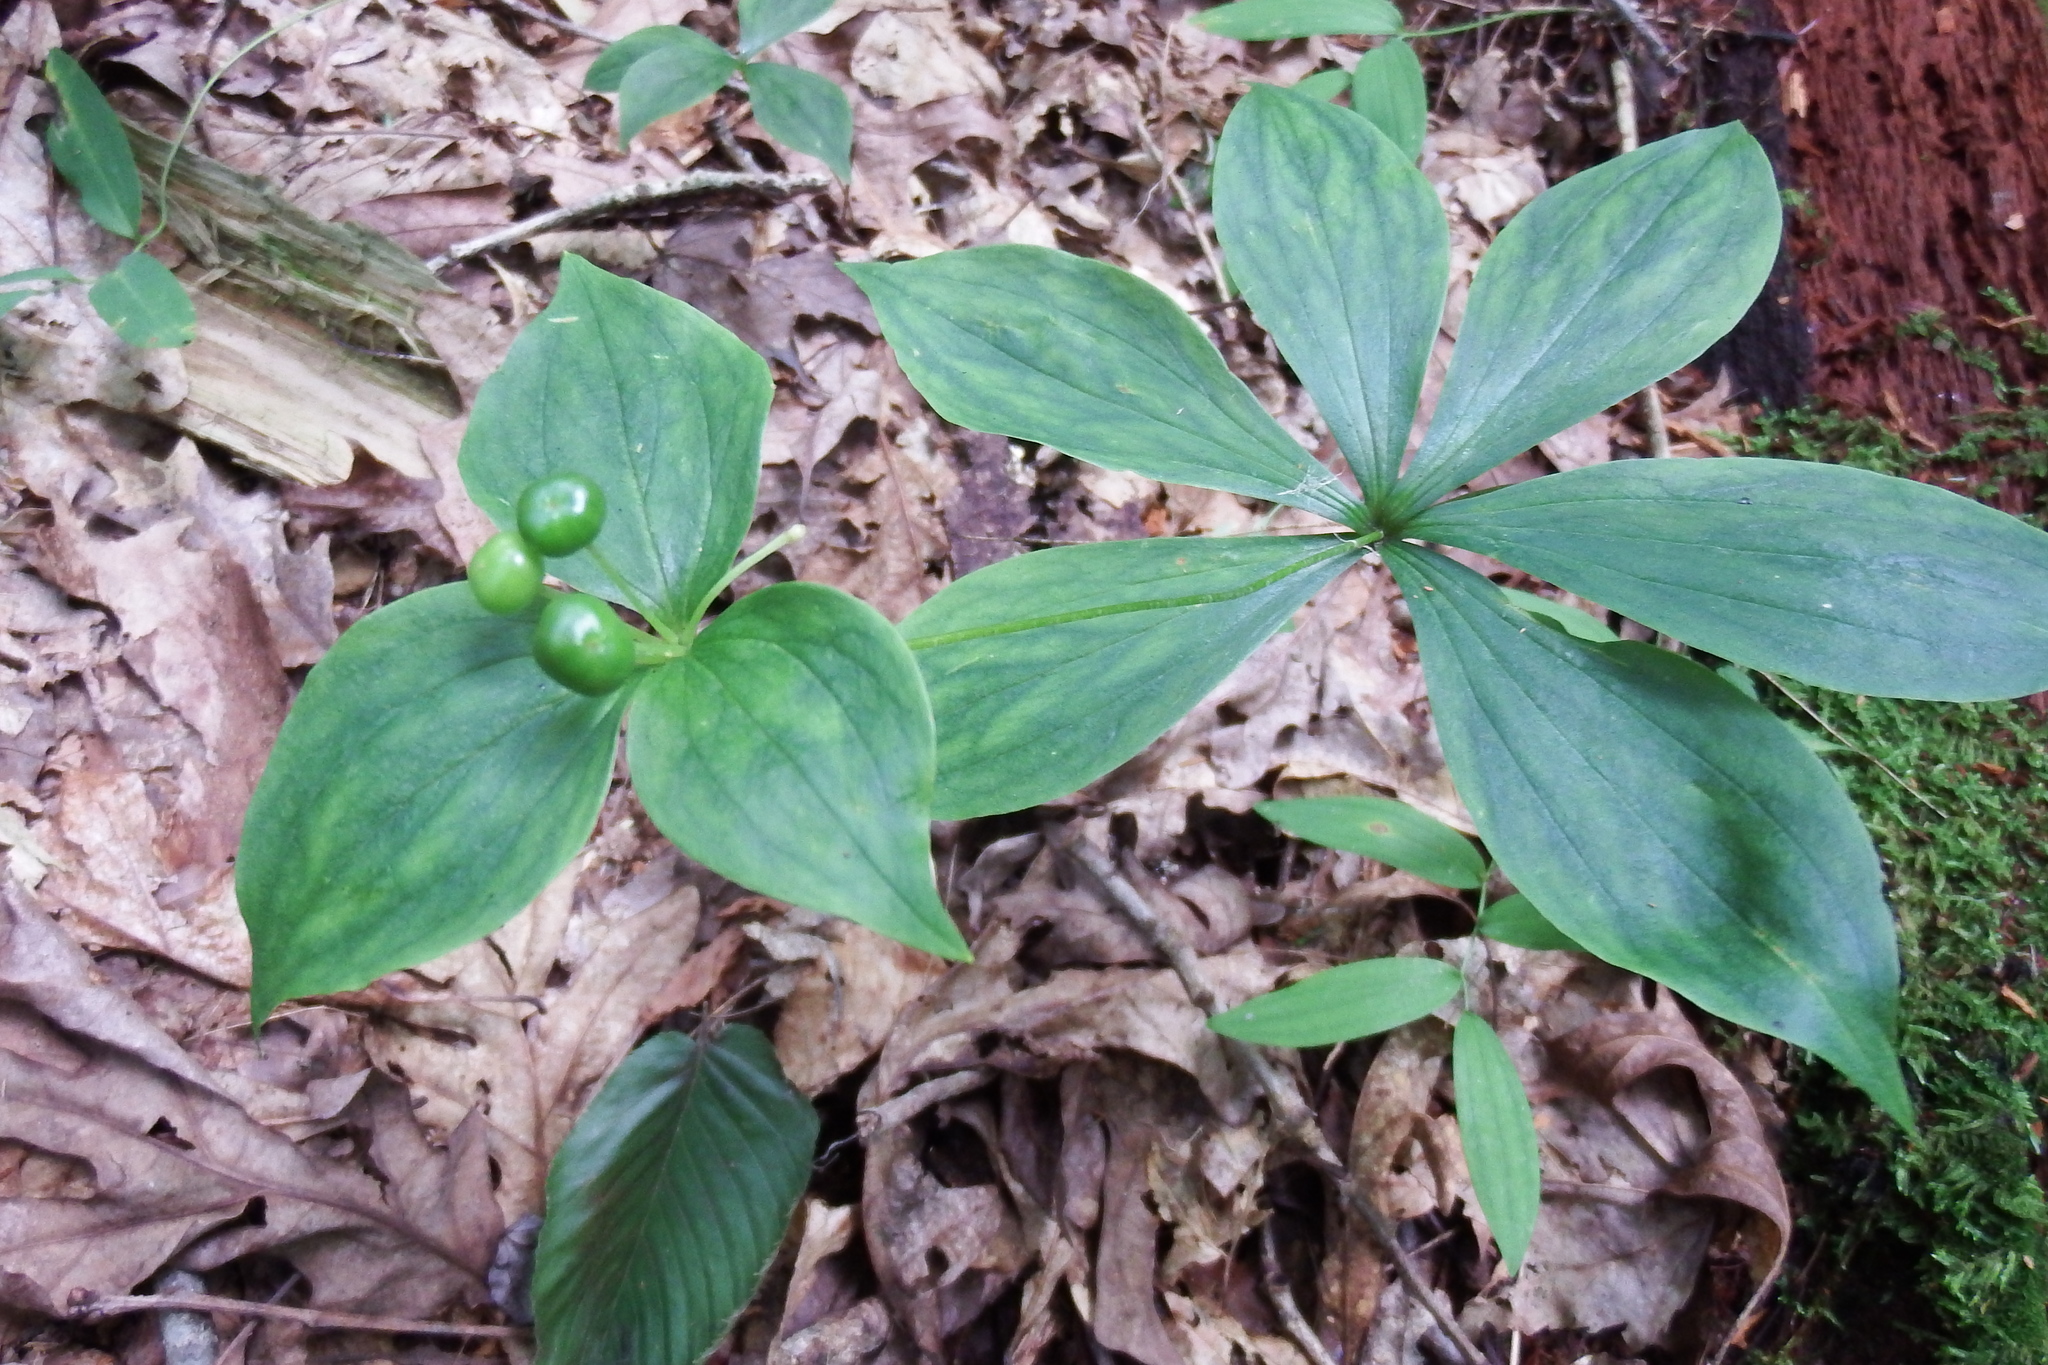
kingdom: Plantae
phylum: Tracheophyta
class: Liliopsida
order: Liliales
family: Liliaceae
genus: Medeola
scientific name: Medeola virginiana
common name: Indian cucumber-root
